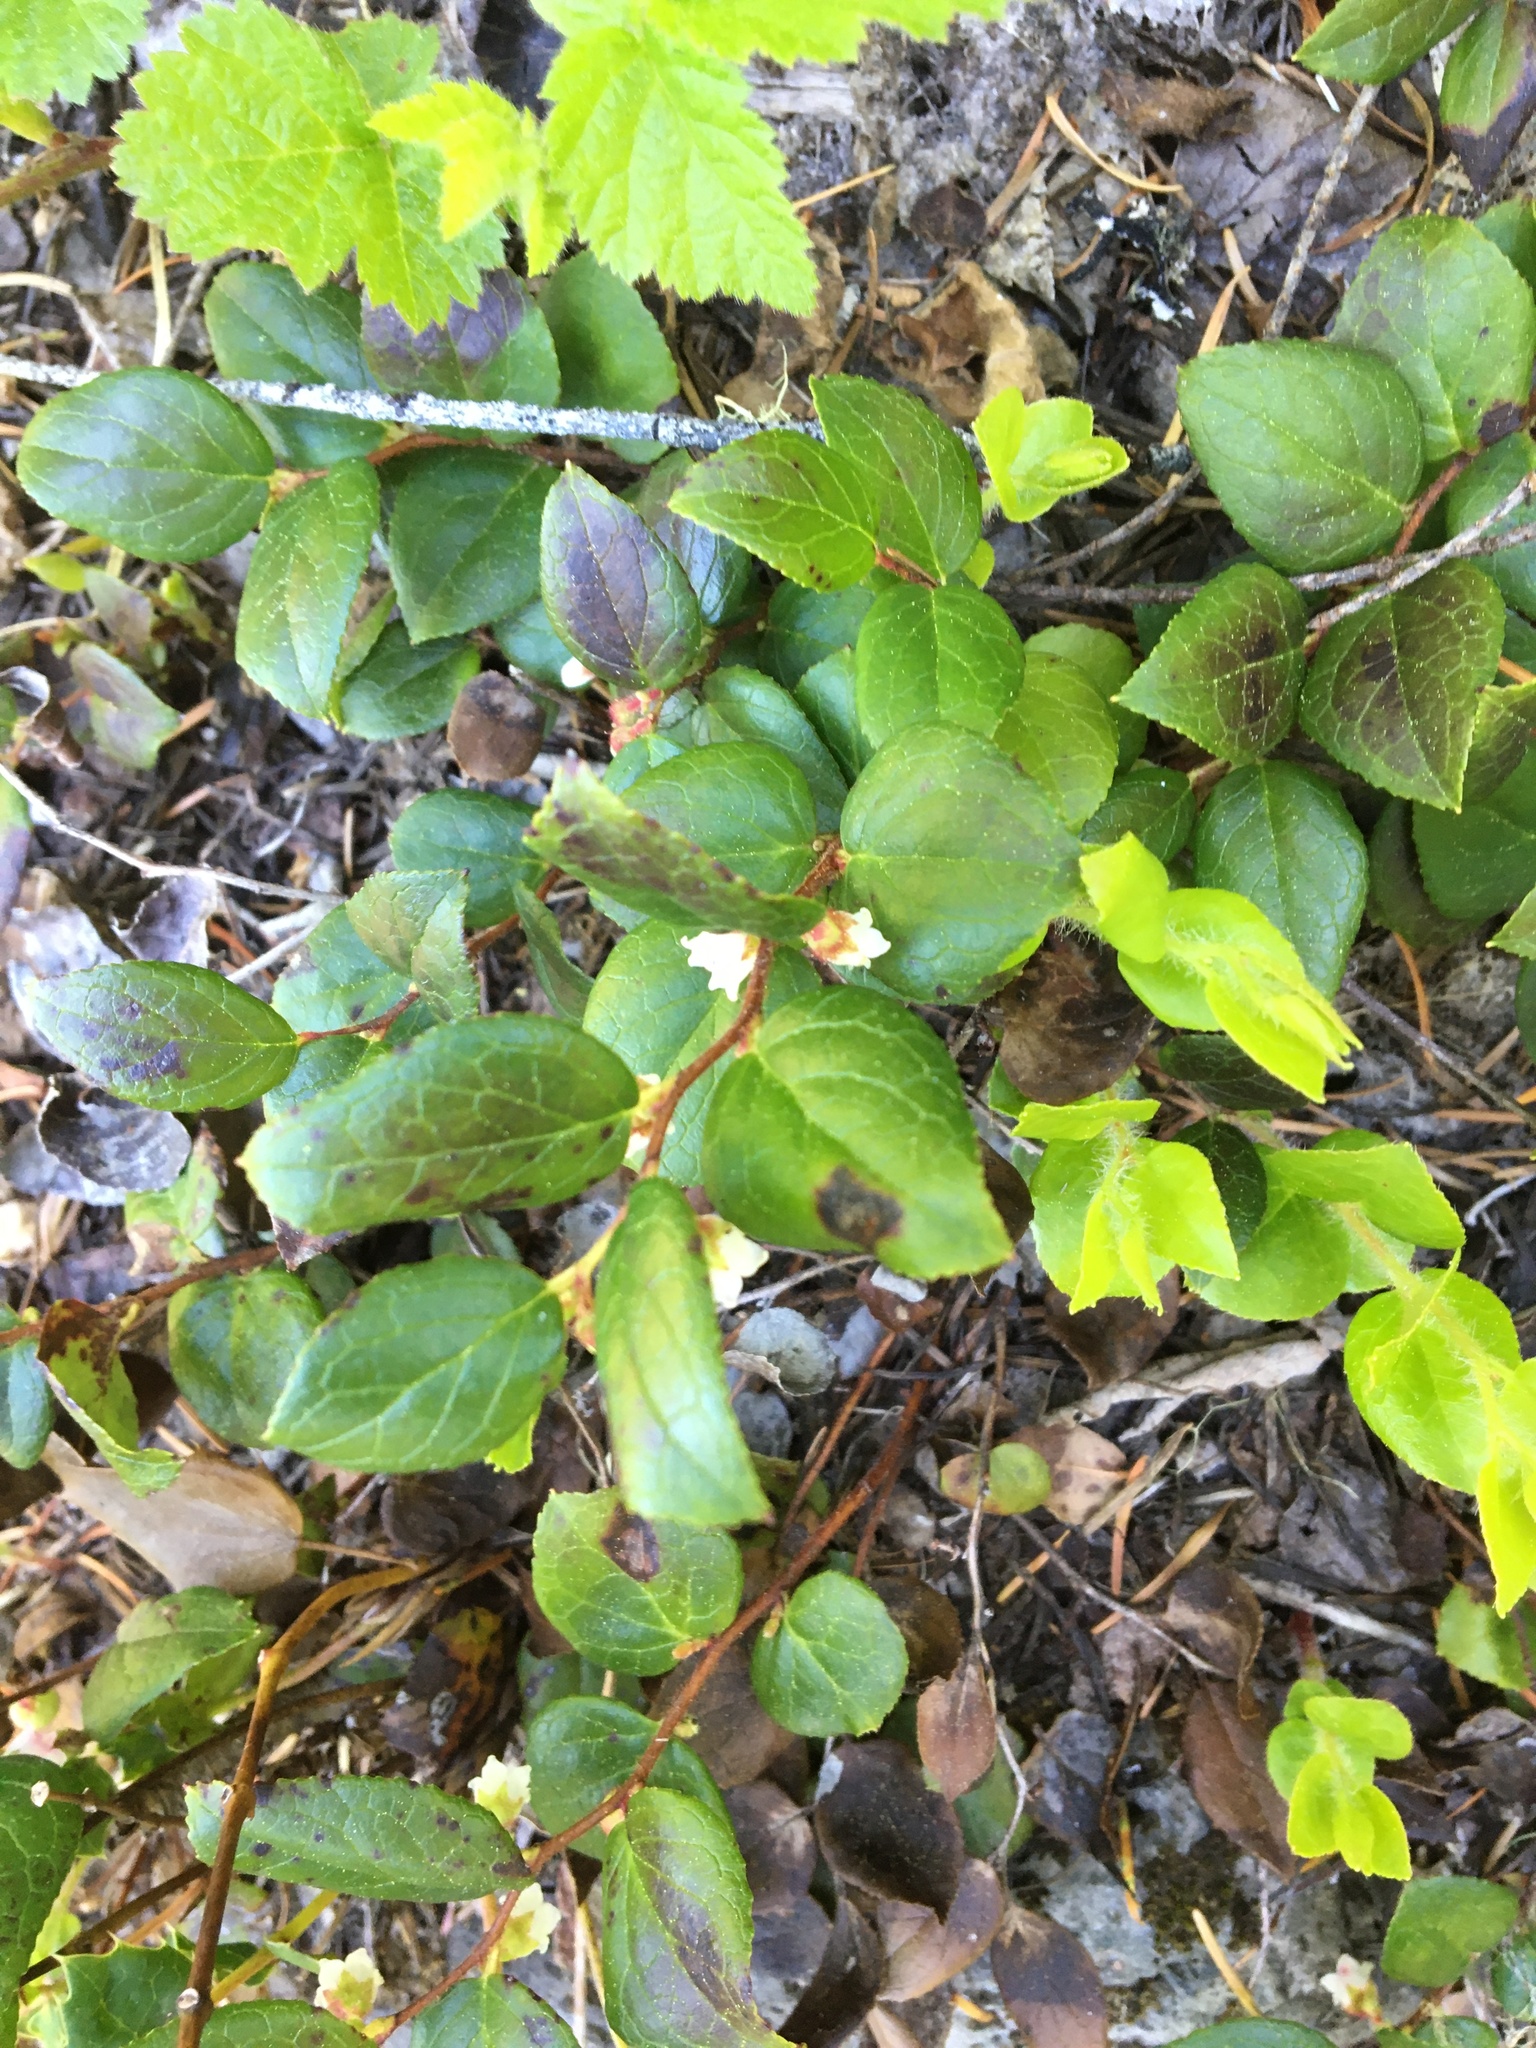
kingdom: Plantae
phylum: Tracheophyta
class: Magnoliopsida
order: Ericales
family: Ericaceae
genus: Gaultheria
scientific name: Gaultheria ovatifolia
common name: Oregon wintergreen
